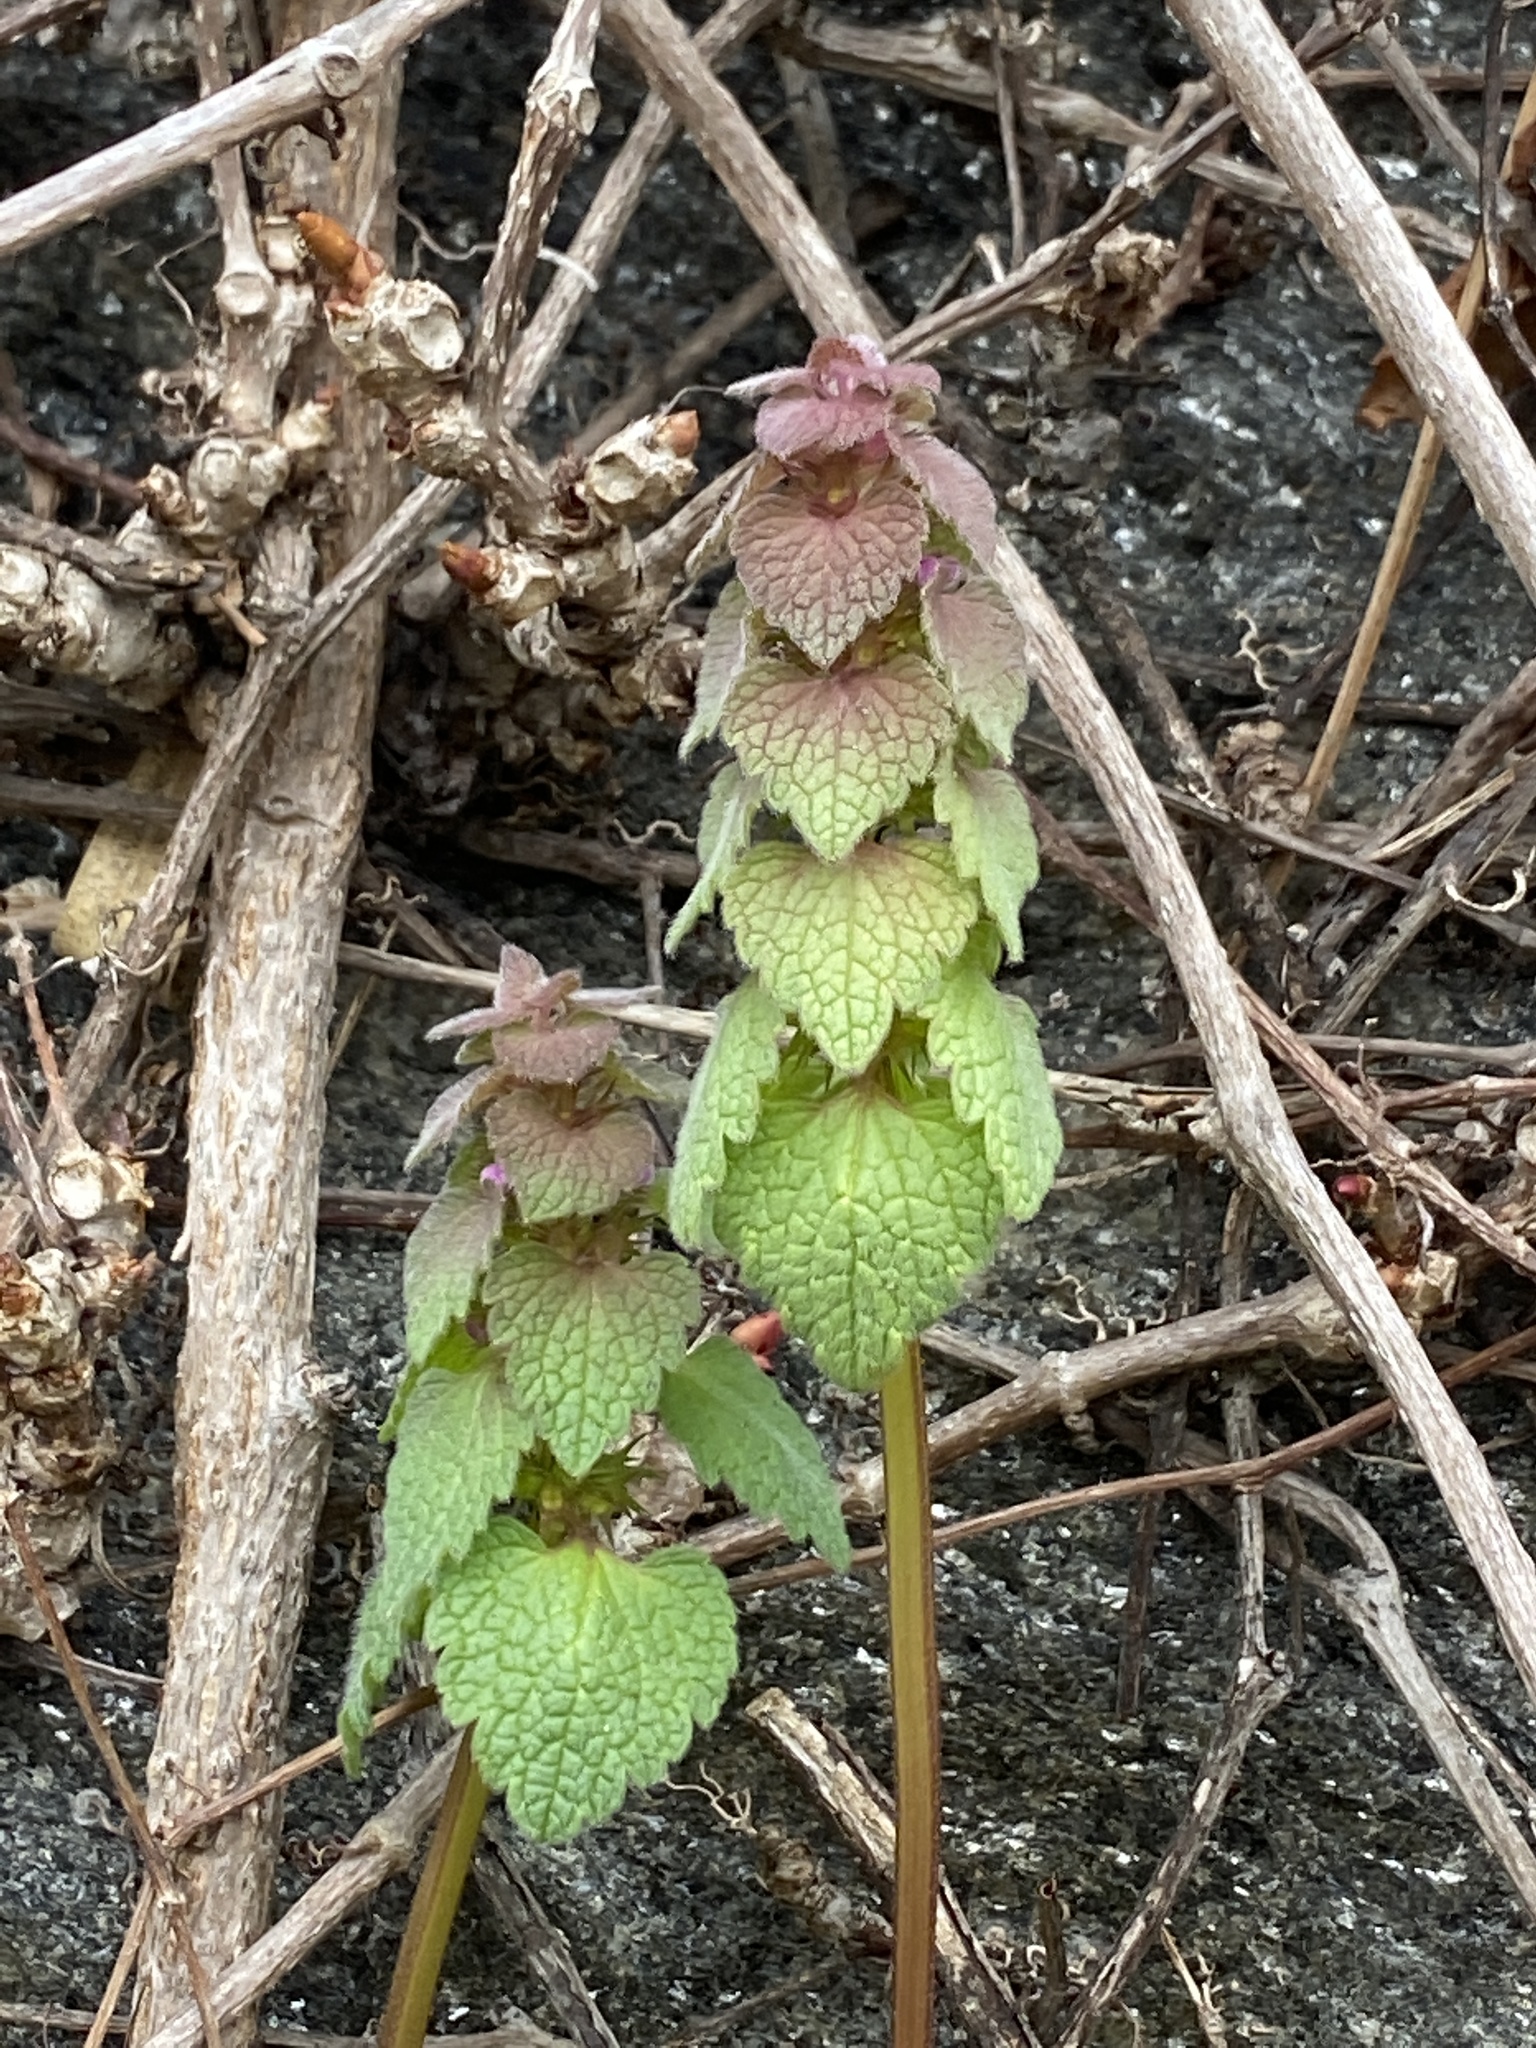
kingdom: Plantae
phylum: Tracheophyta
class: Magnoliopsida
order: Lamiales
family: Lamiaceae
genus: Lamium
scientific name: Lamium purpureum
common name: Red dead-nettle
